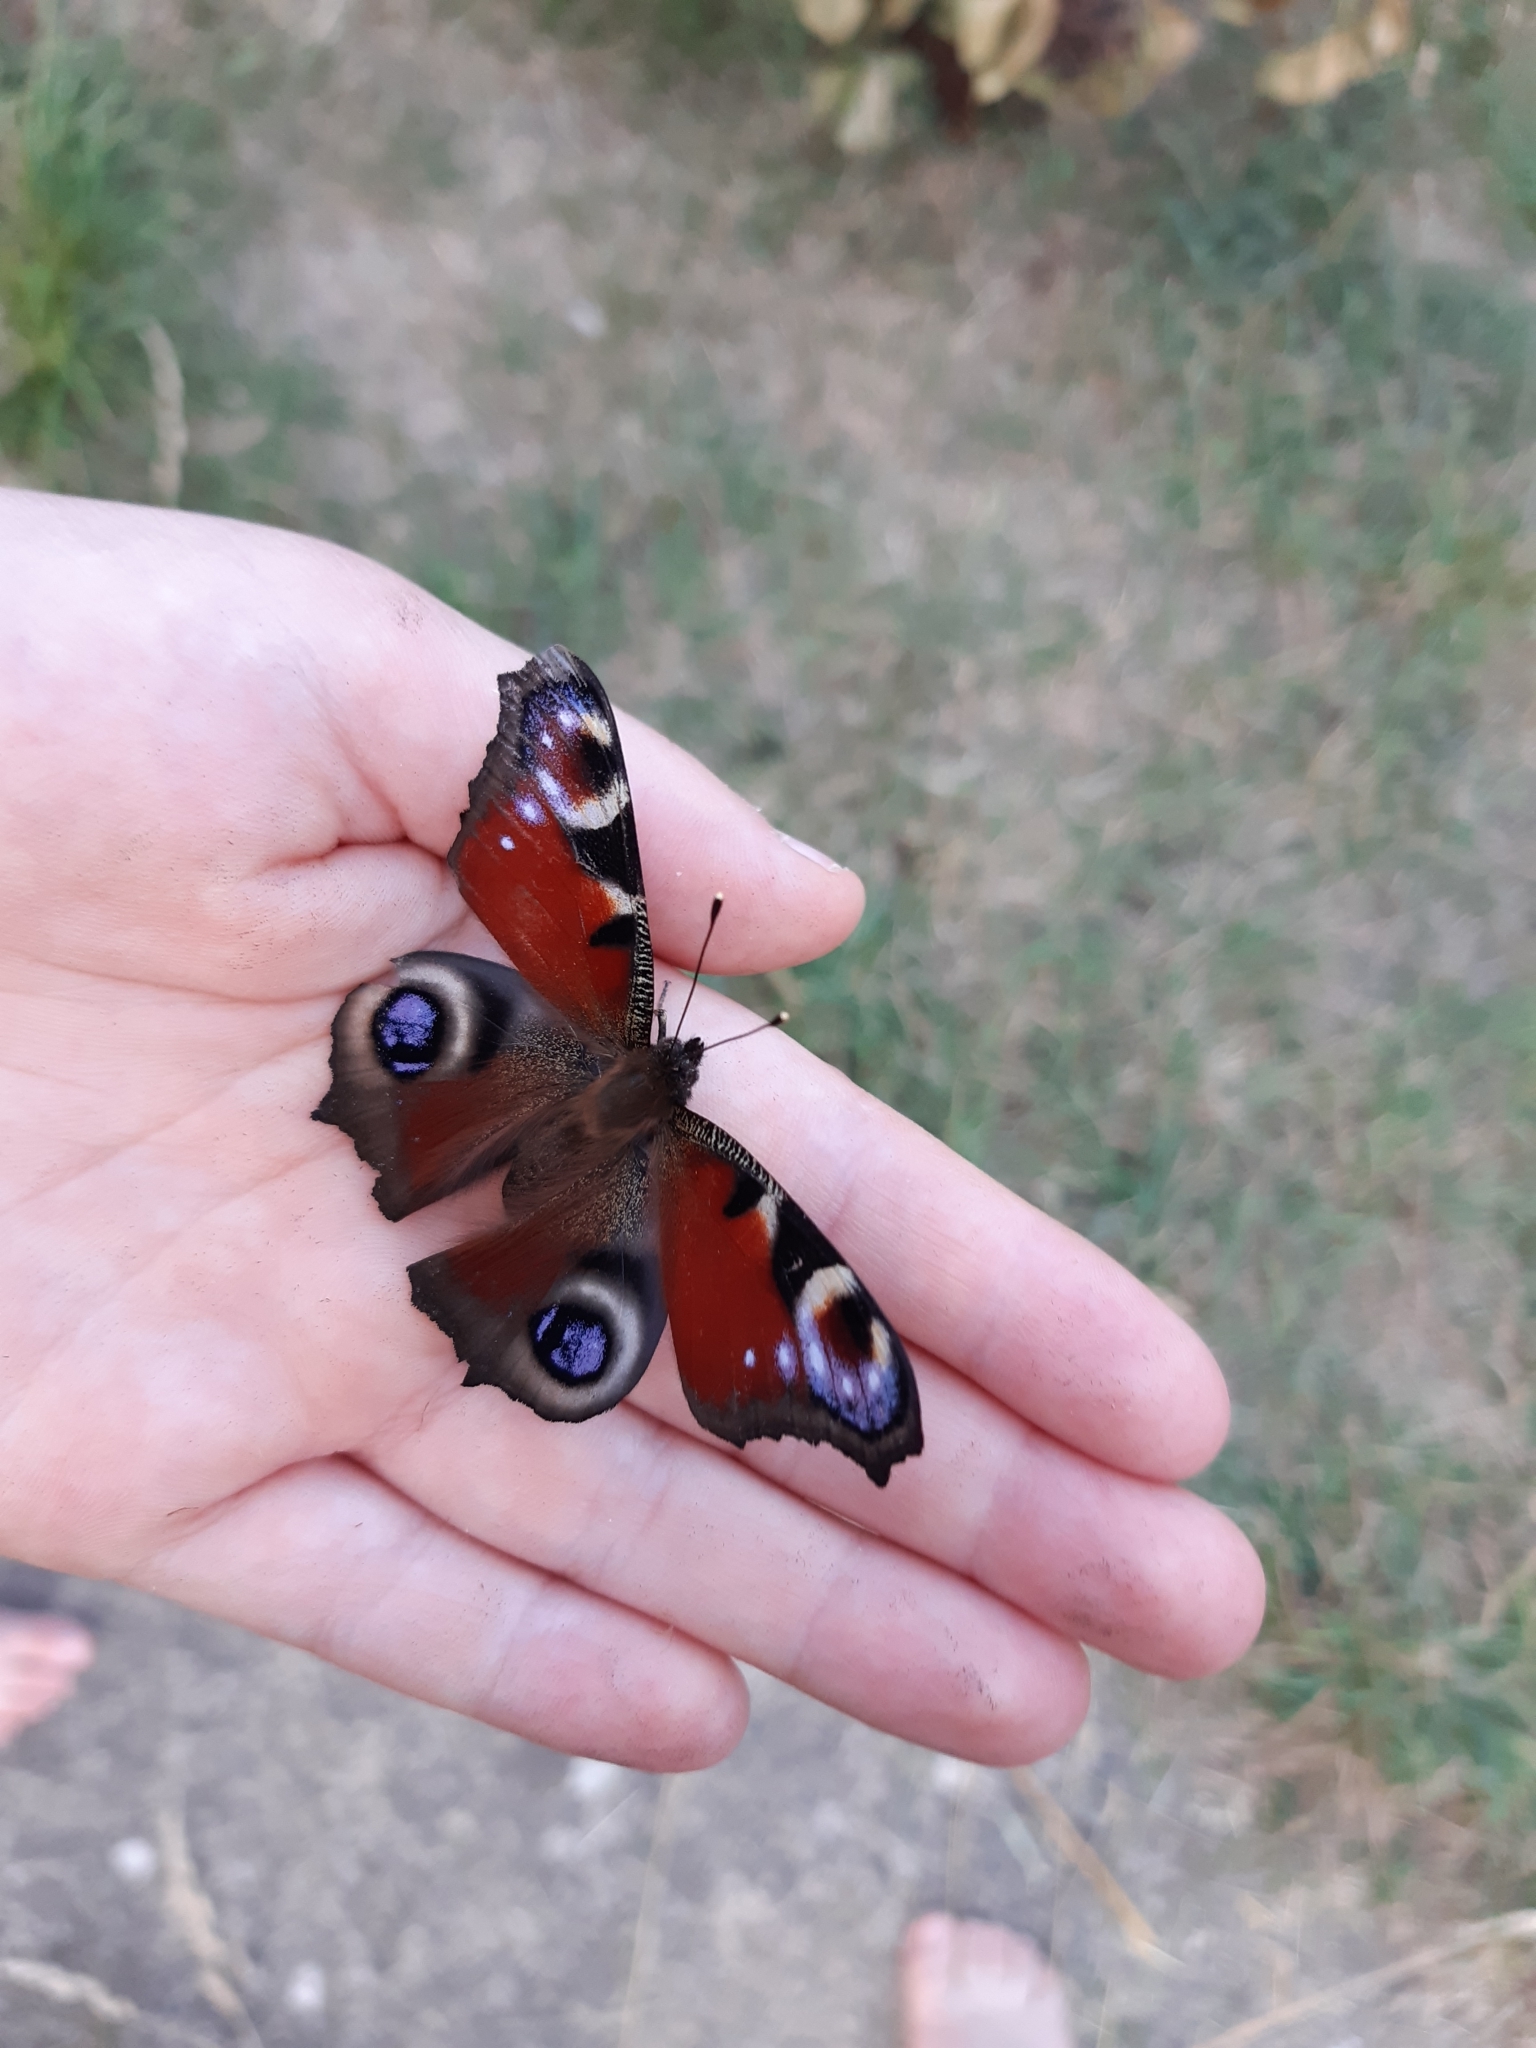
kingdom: Animalia
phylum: Arthropoda
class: Insecta
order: Lepidoptera
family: Nymphalidae
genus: Aglais
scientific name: Aglais io
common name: Peacock
